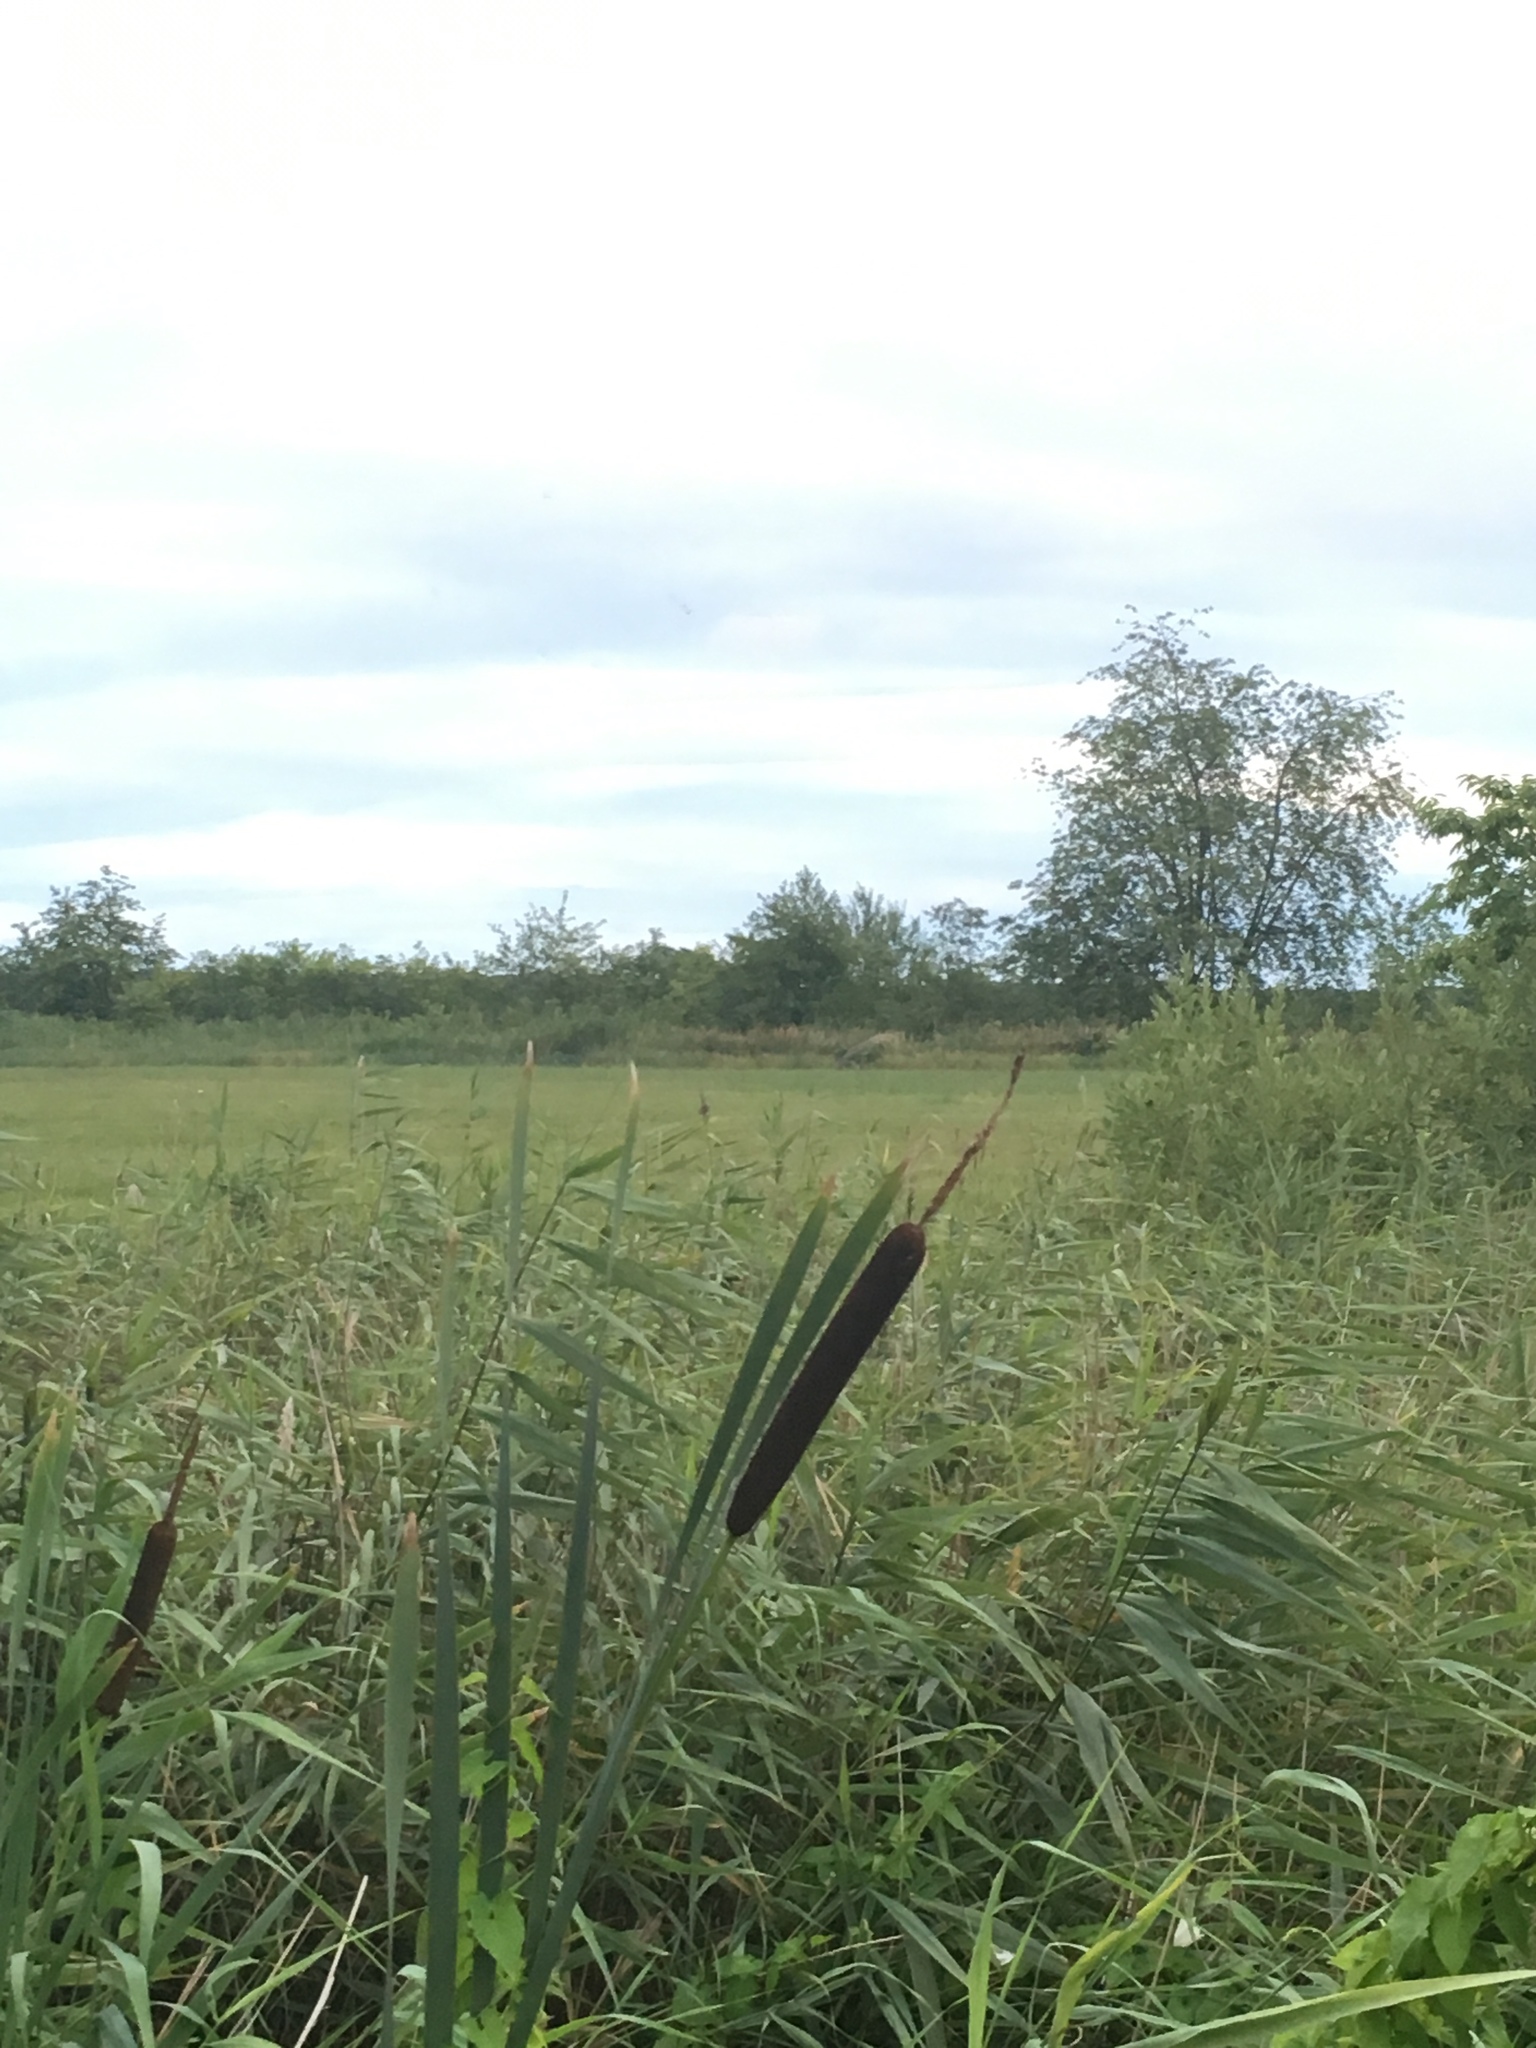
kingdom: Plantae
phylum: Tracheophyta
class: Liliopsida
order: Poales
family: Typhaceae
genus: Typha
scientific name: Typha latifolia
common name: Broadleaf cattail
